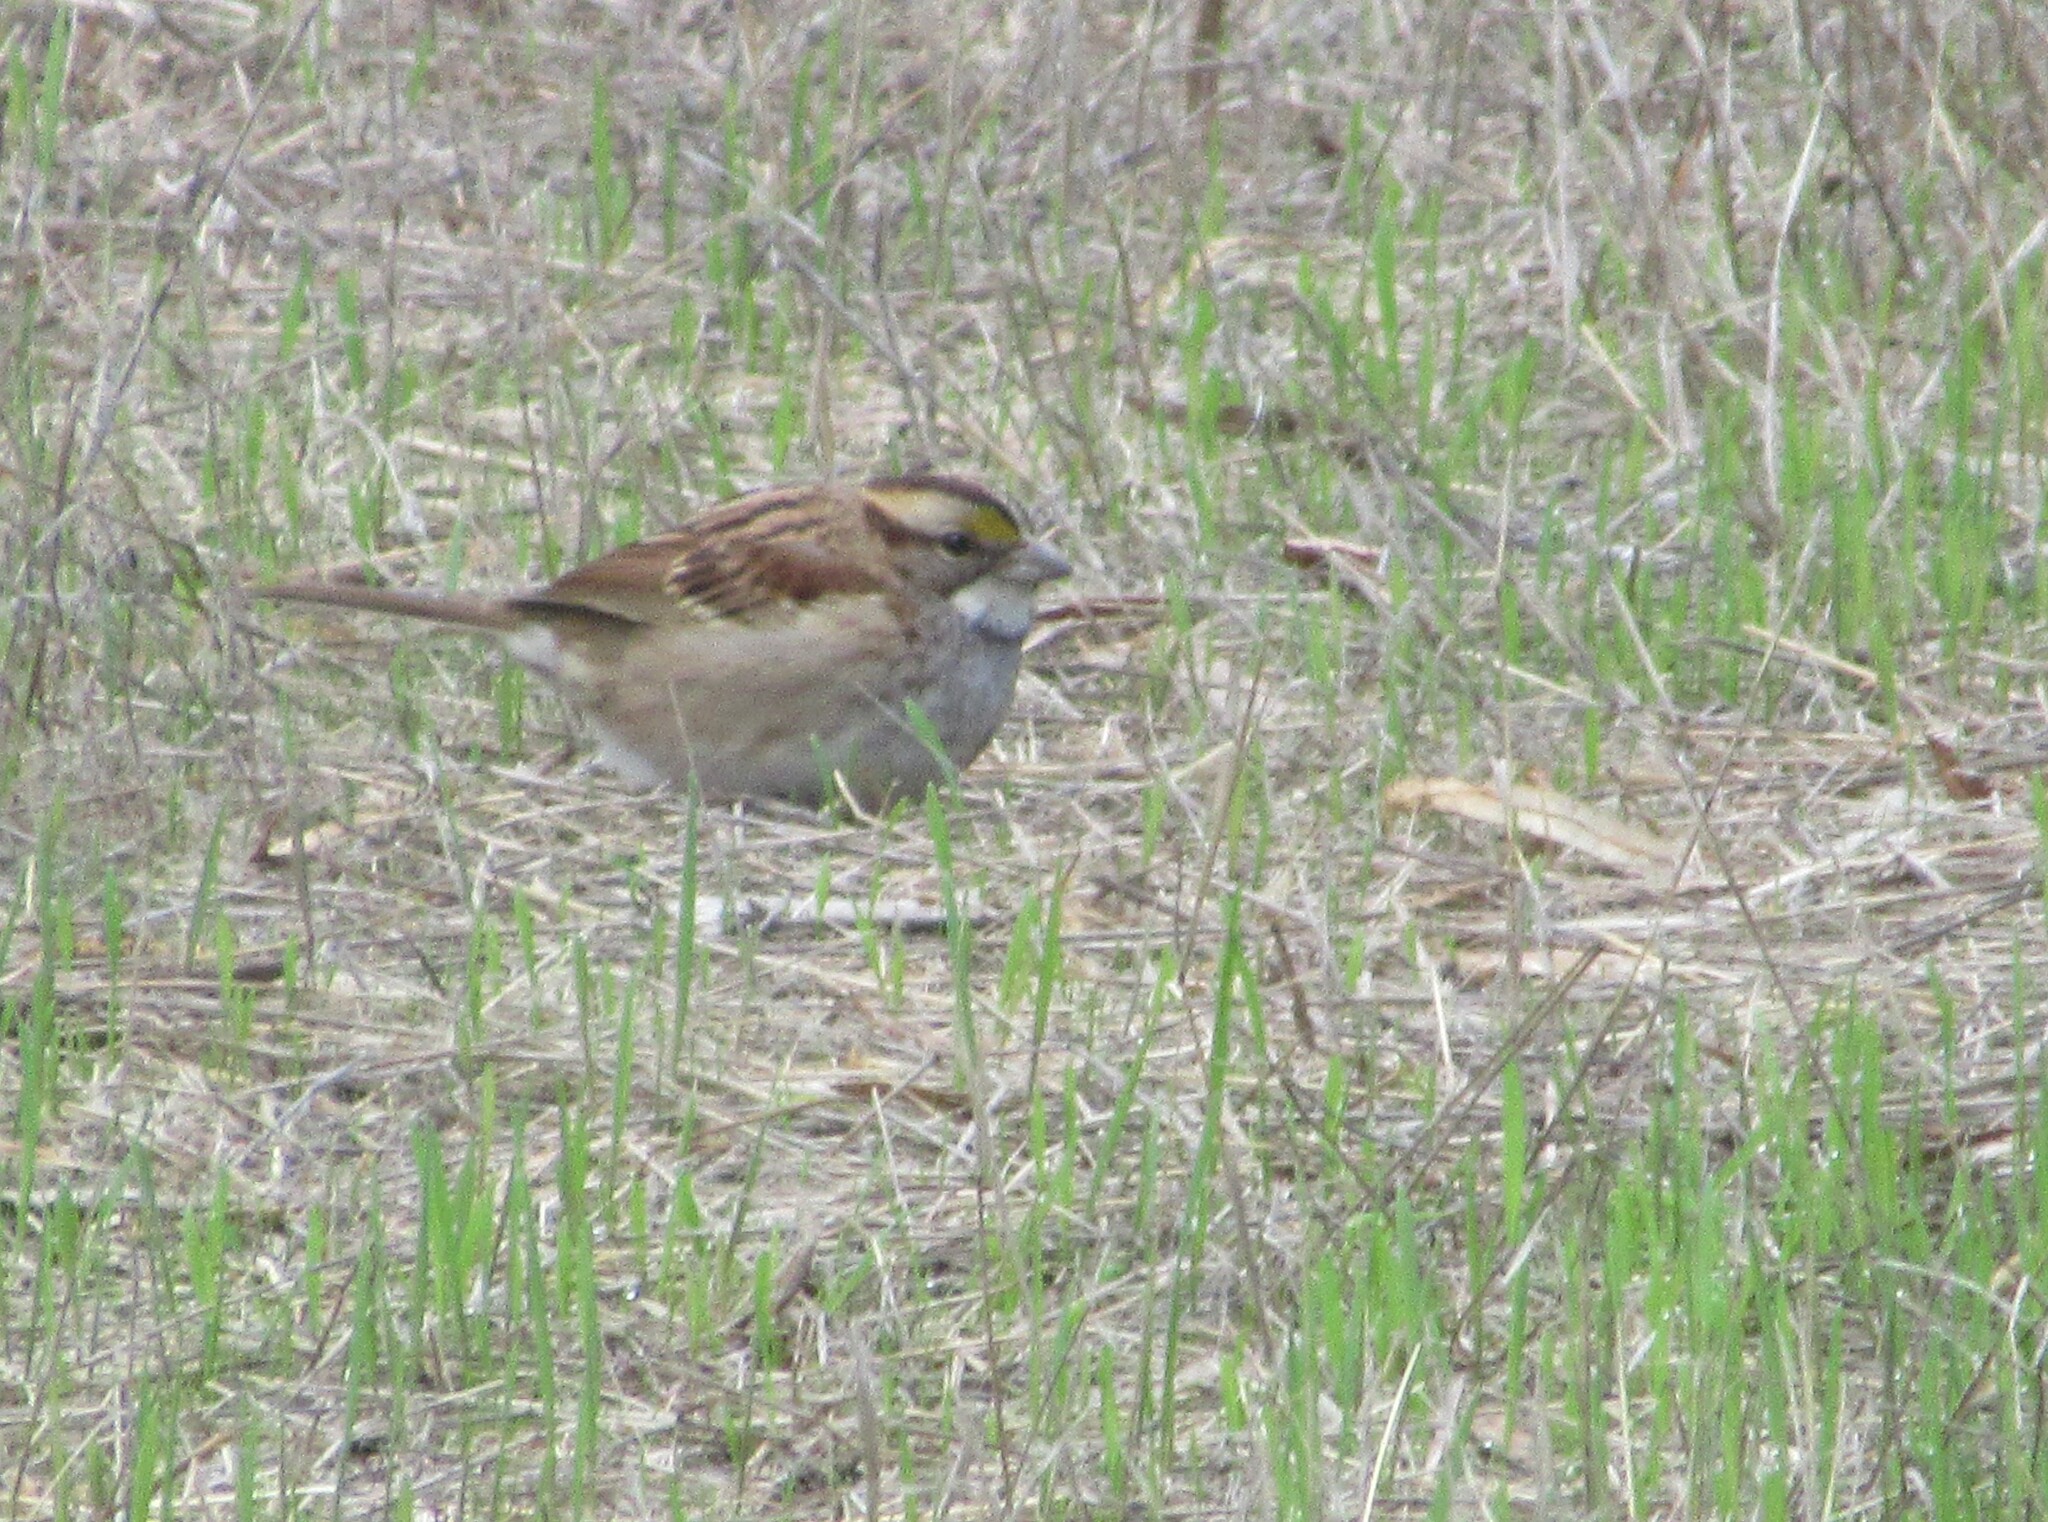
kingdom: Animalia
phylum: Chordata
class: Aves
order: Passeriformes
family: Passerellidae
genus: Zonotrichia
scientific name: Zonotrichia albicollis
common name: White-throated sparrow
